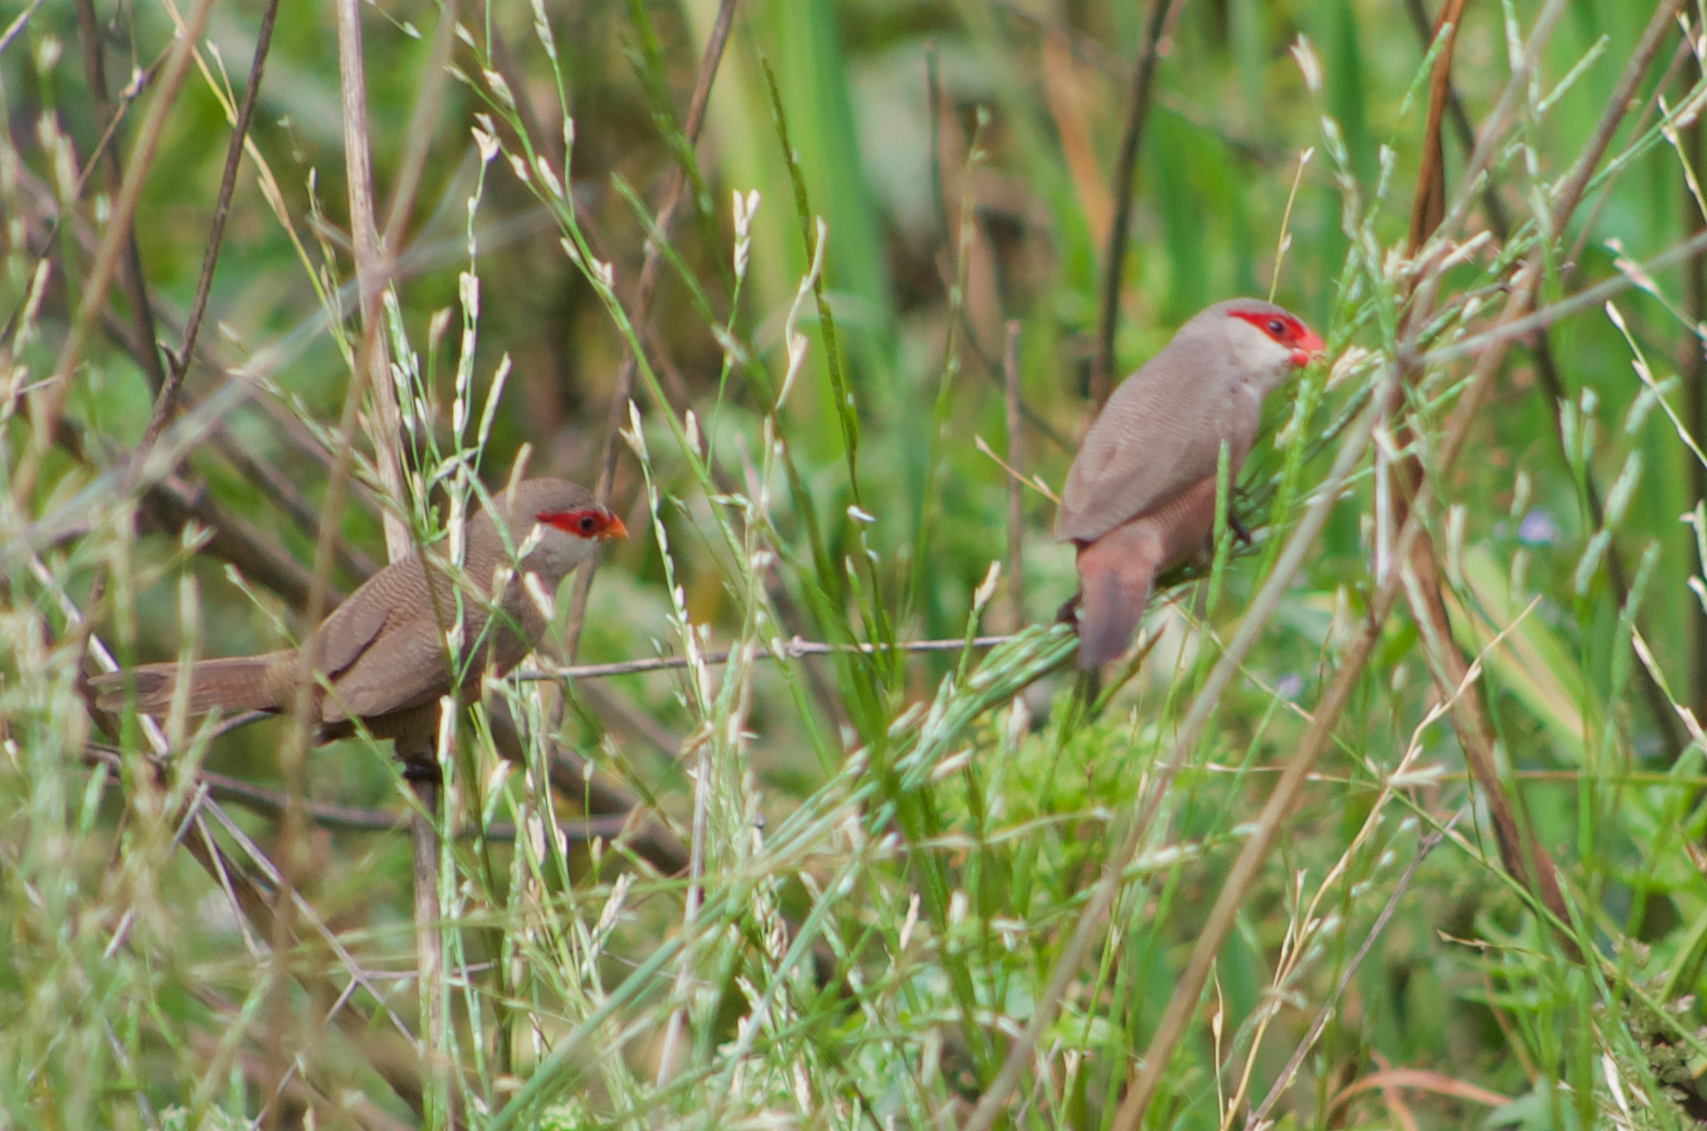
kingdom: Animalia
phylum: Chordata
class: Aves
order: Passeriformes
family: Estrildidae
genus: Estrilda
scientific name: Estrilda astrild
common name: Common waxbill
